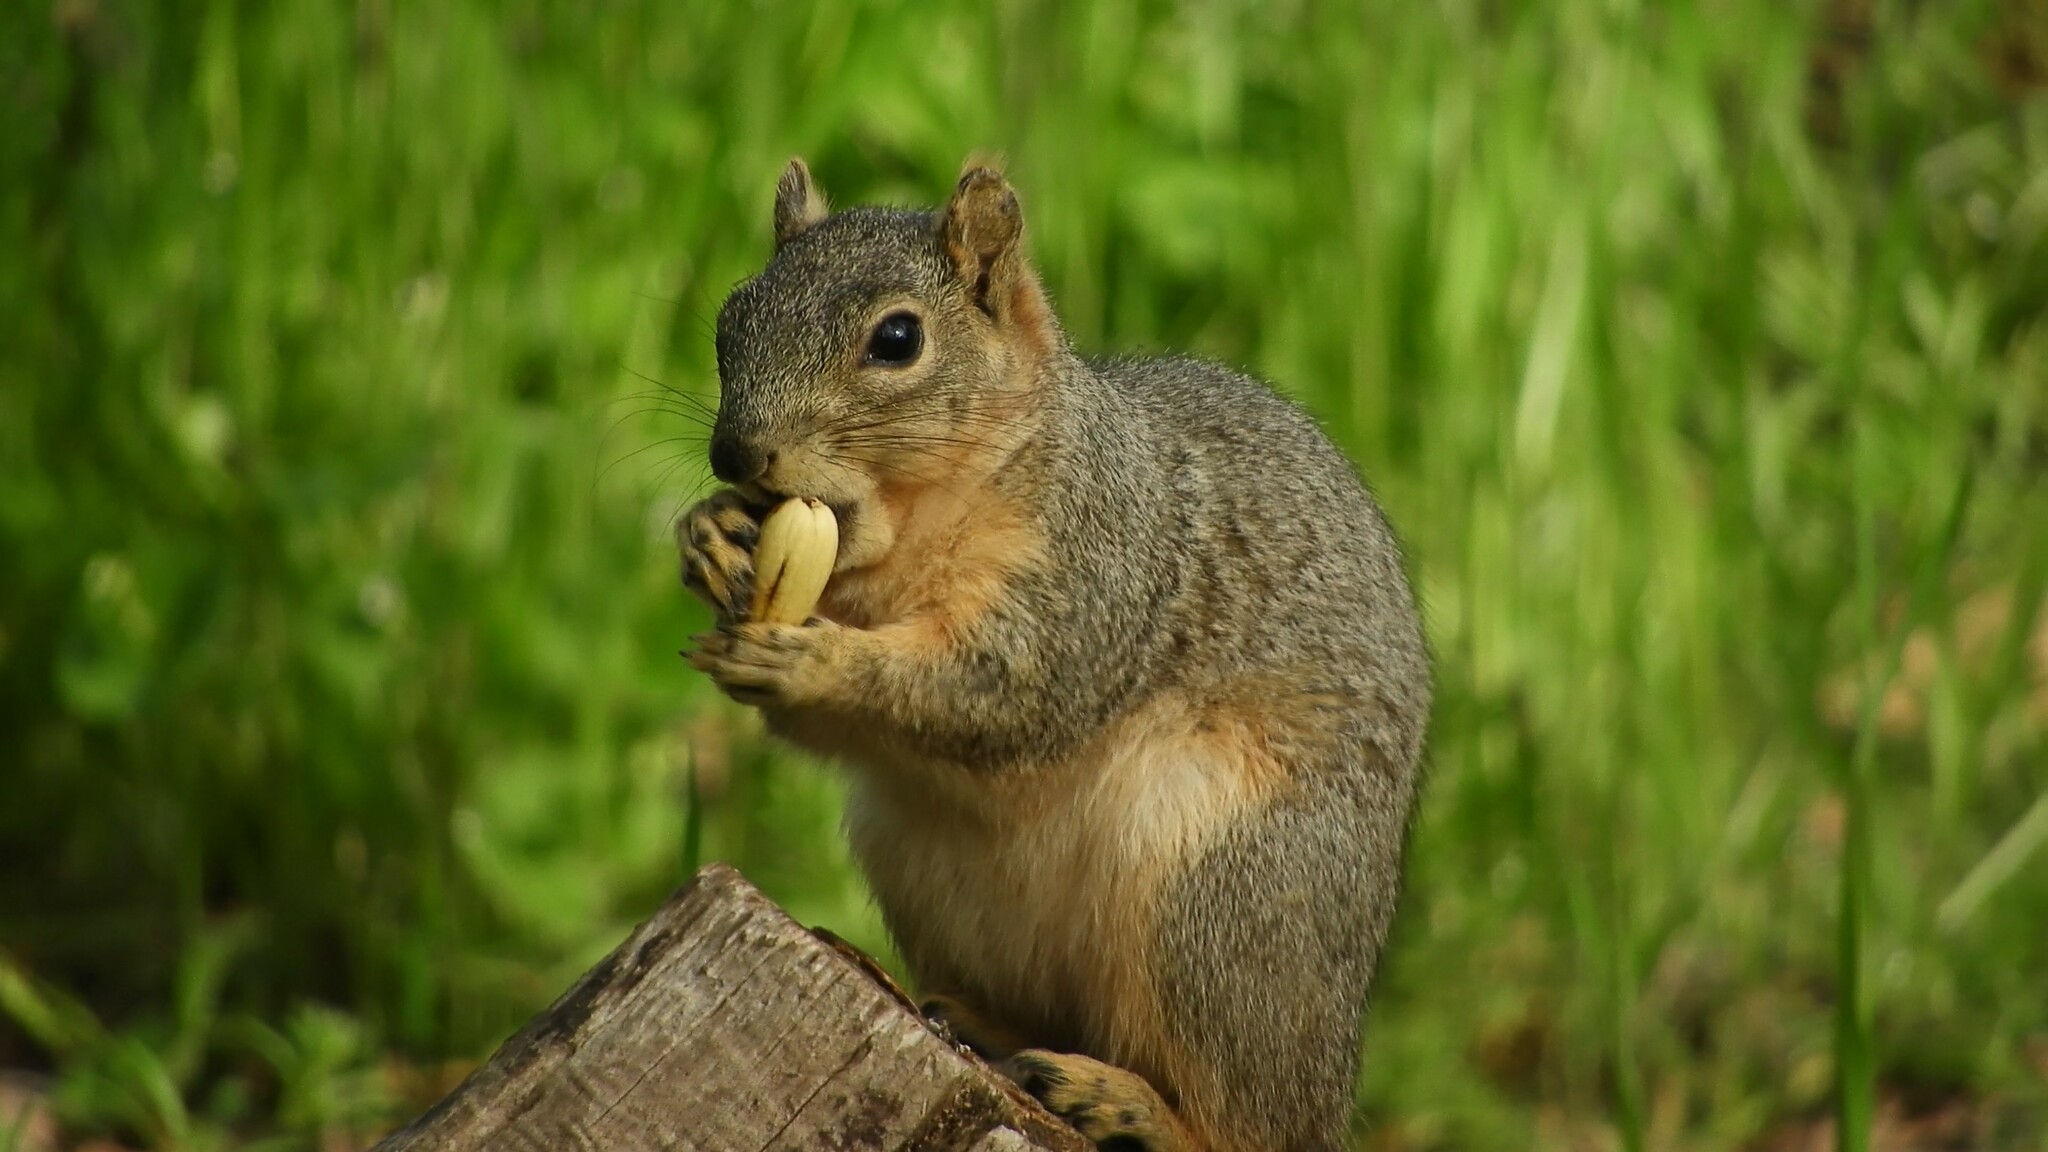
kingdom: Animalia
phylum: Chordata
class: Mammalia
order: Rodentia
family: Sciuridae
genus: Sciurus
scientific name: Sciurus niger
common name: Fox squirrel
